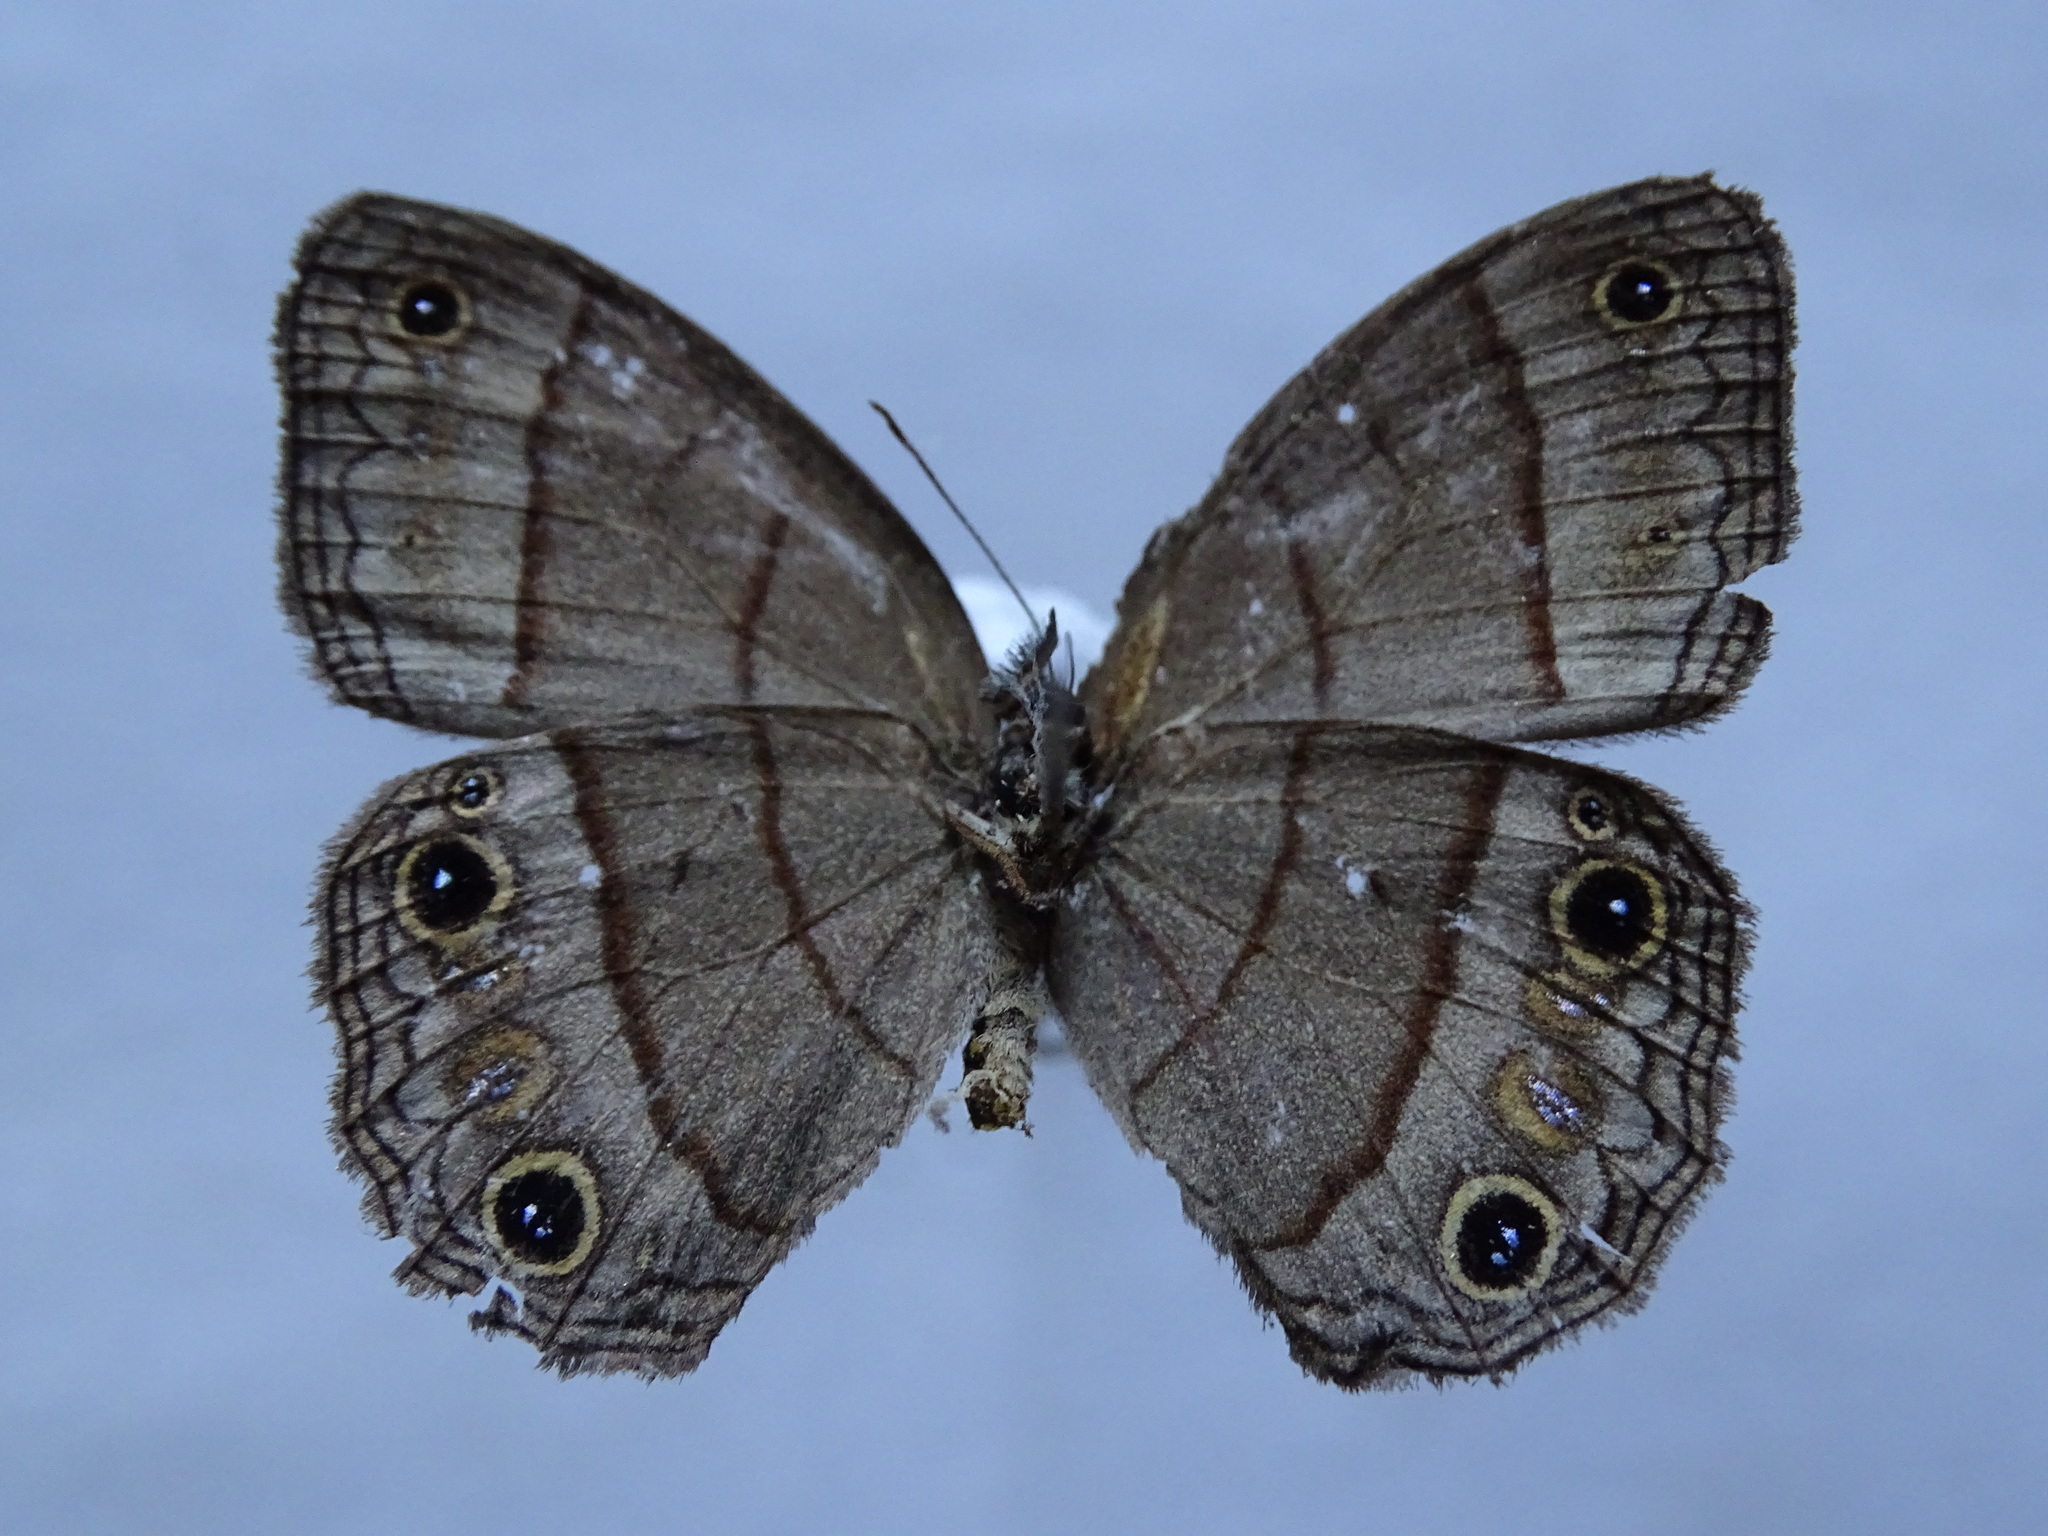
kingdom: Animalia
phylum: Arthropoda
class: Insecta
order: Lepidoptera
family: Nymphalidae
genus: Euptychia
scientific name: Euptychia Cissia pompilia
